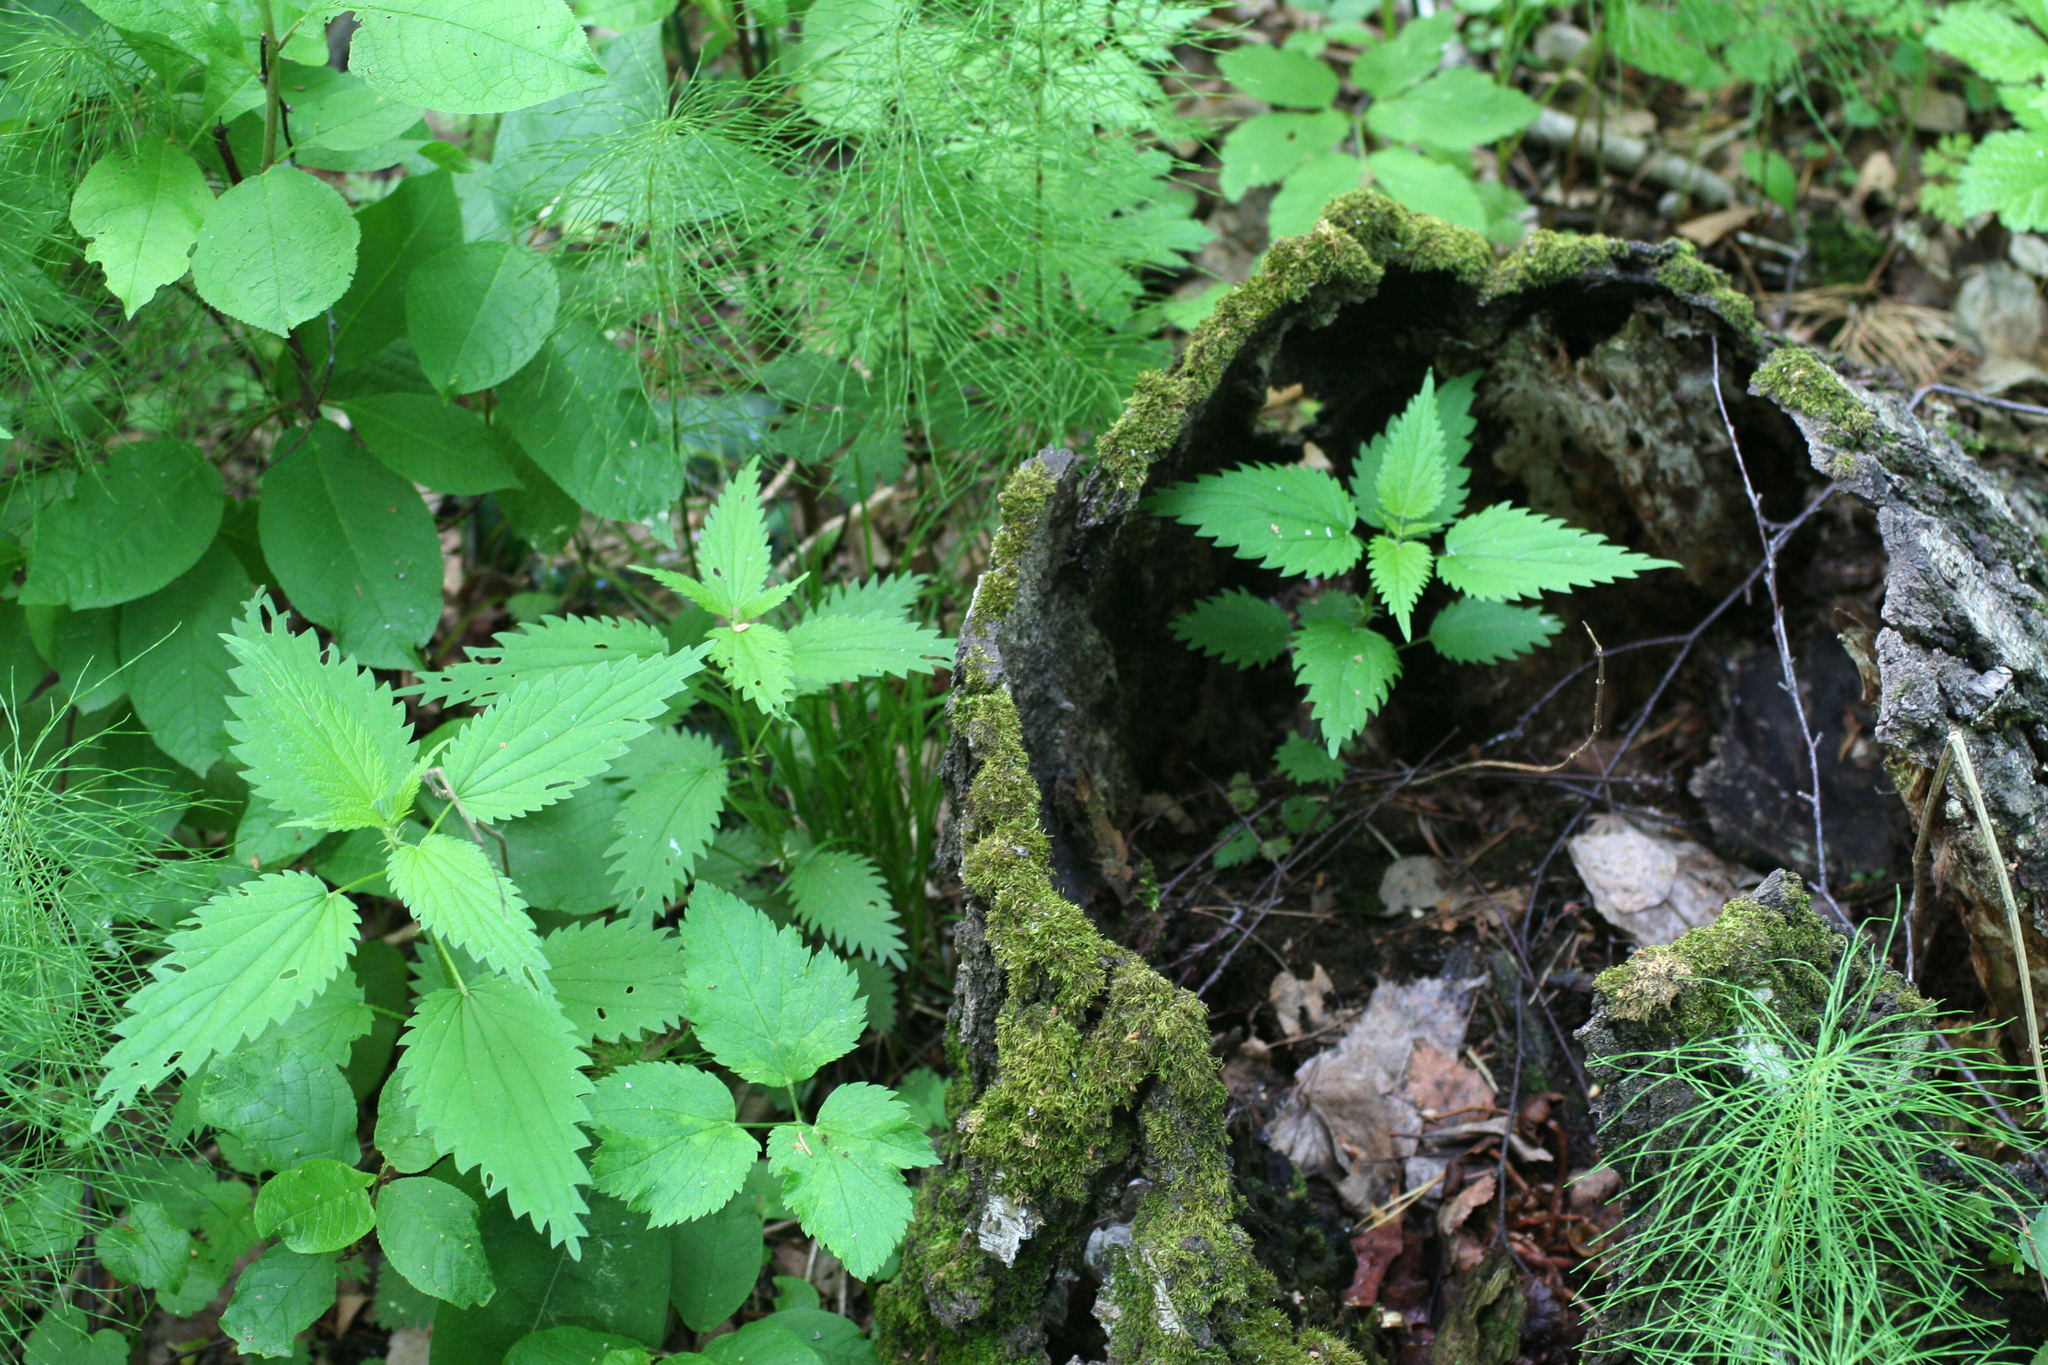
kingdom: Plantae
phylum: Tracheophyta
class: Magnoliopsida
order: Rosales
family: Urticaceae
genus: Urtica
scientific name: Urtica dioica
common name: Common nettle
